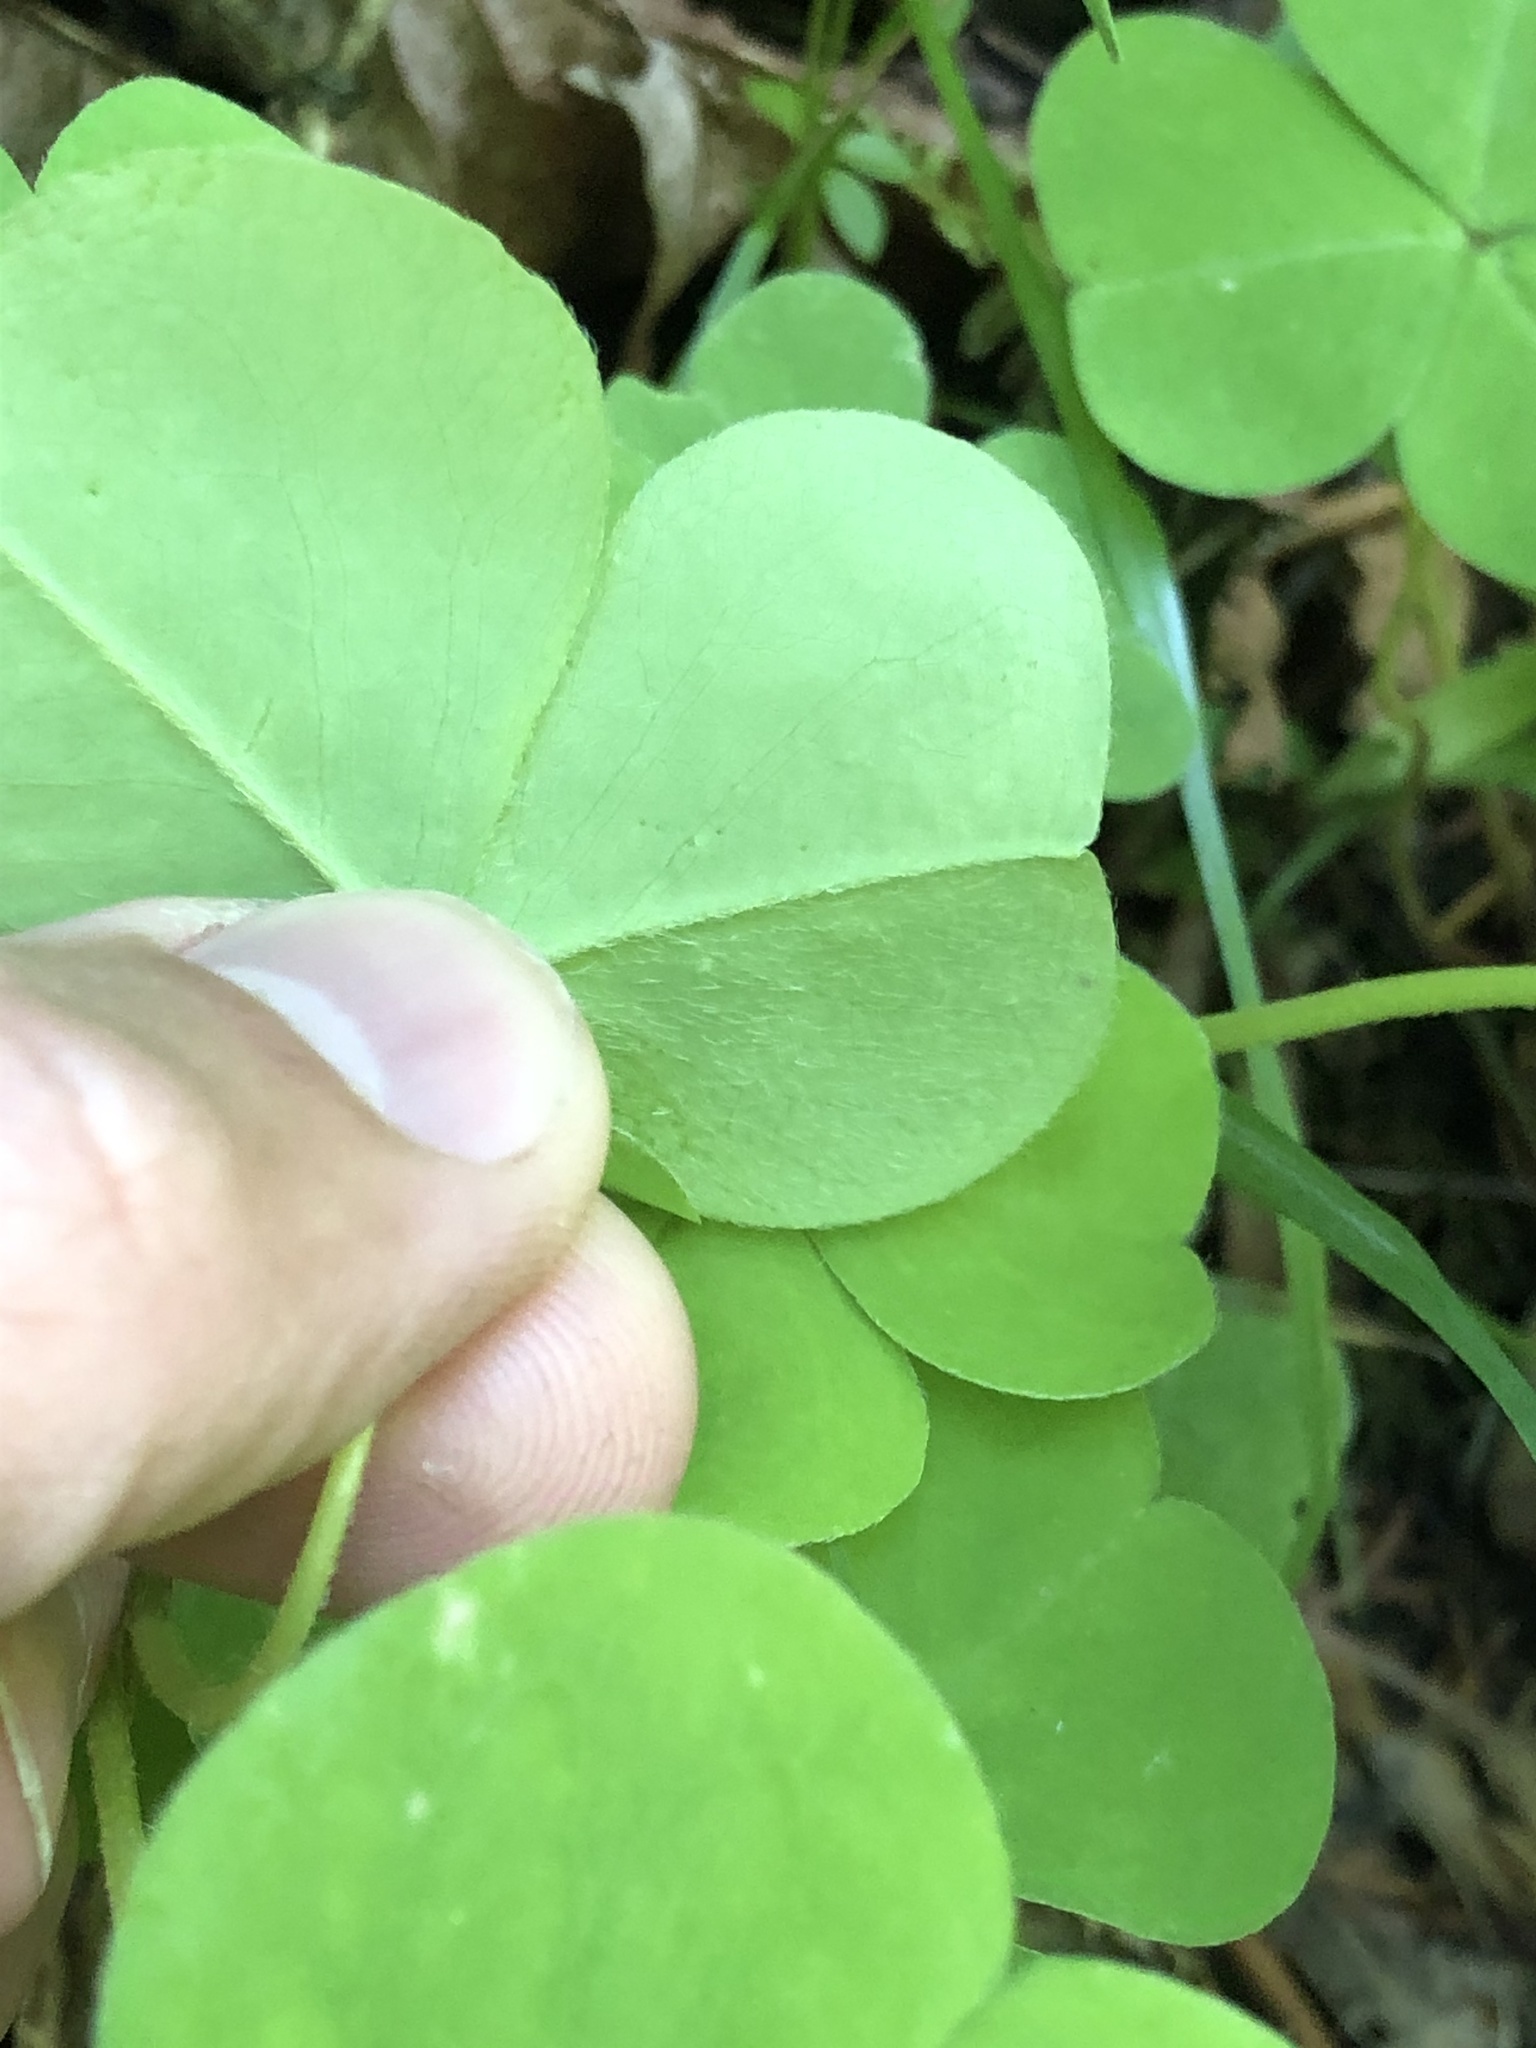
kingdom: Plantae
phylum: Tracheophyta
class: Magnoliopsida
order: Oxalidales
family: Oxalidaceae
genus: Oxalis
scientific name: Oxalis oregana
